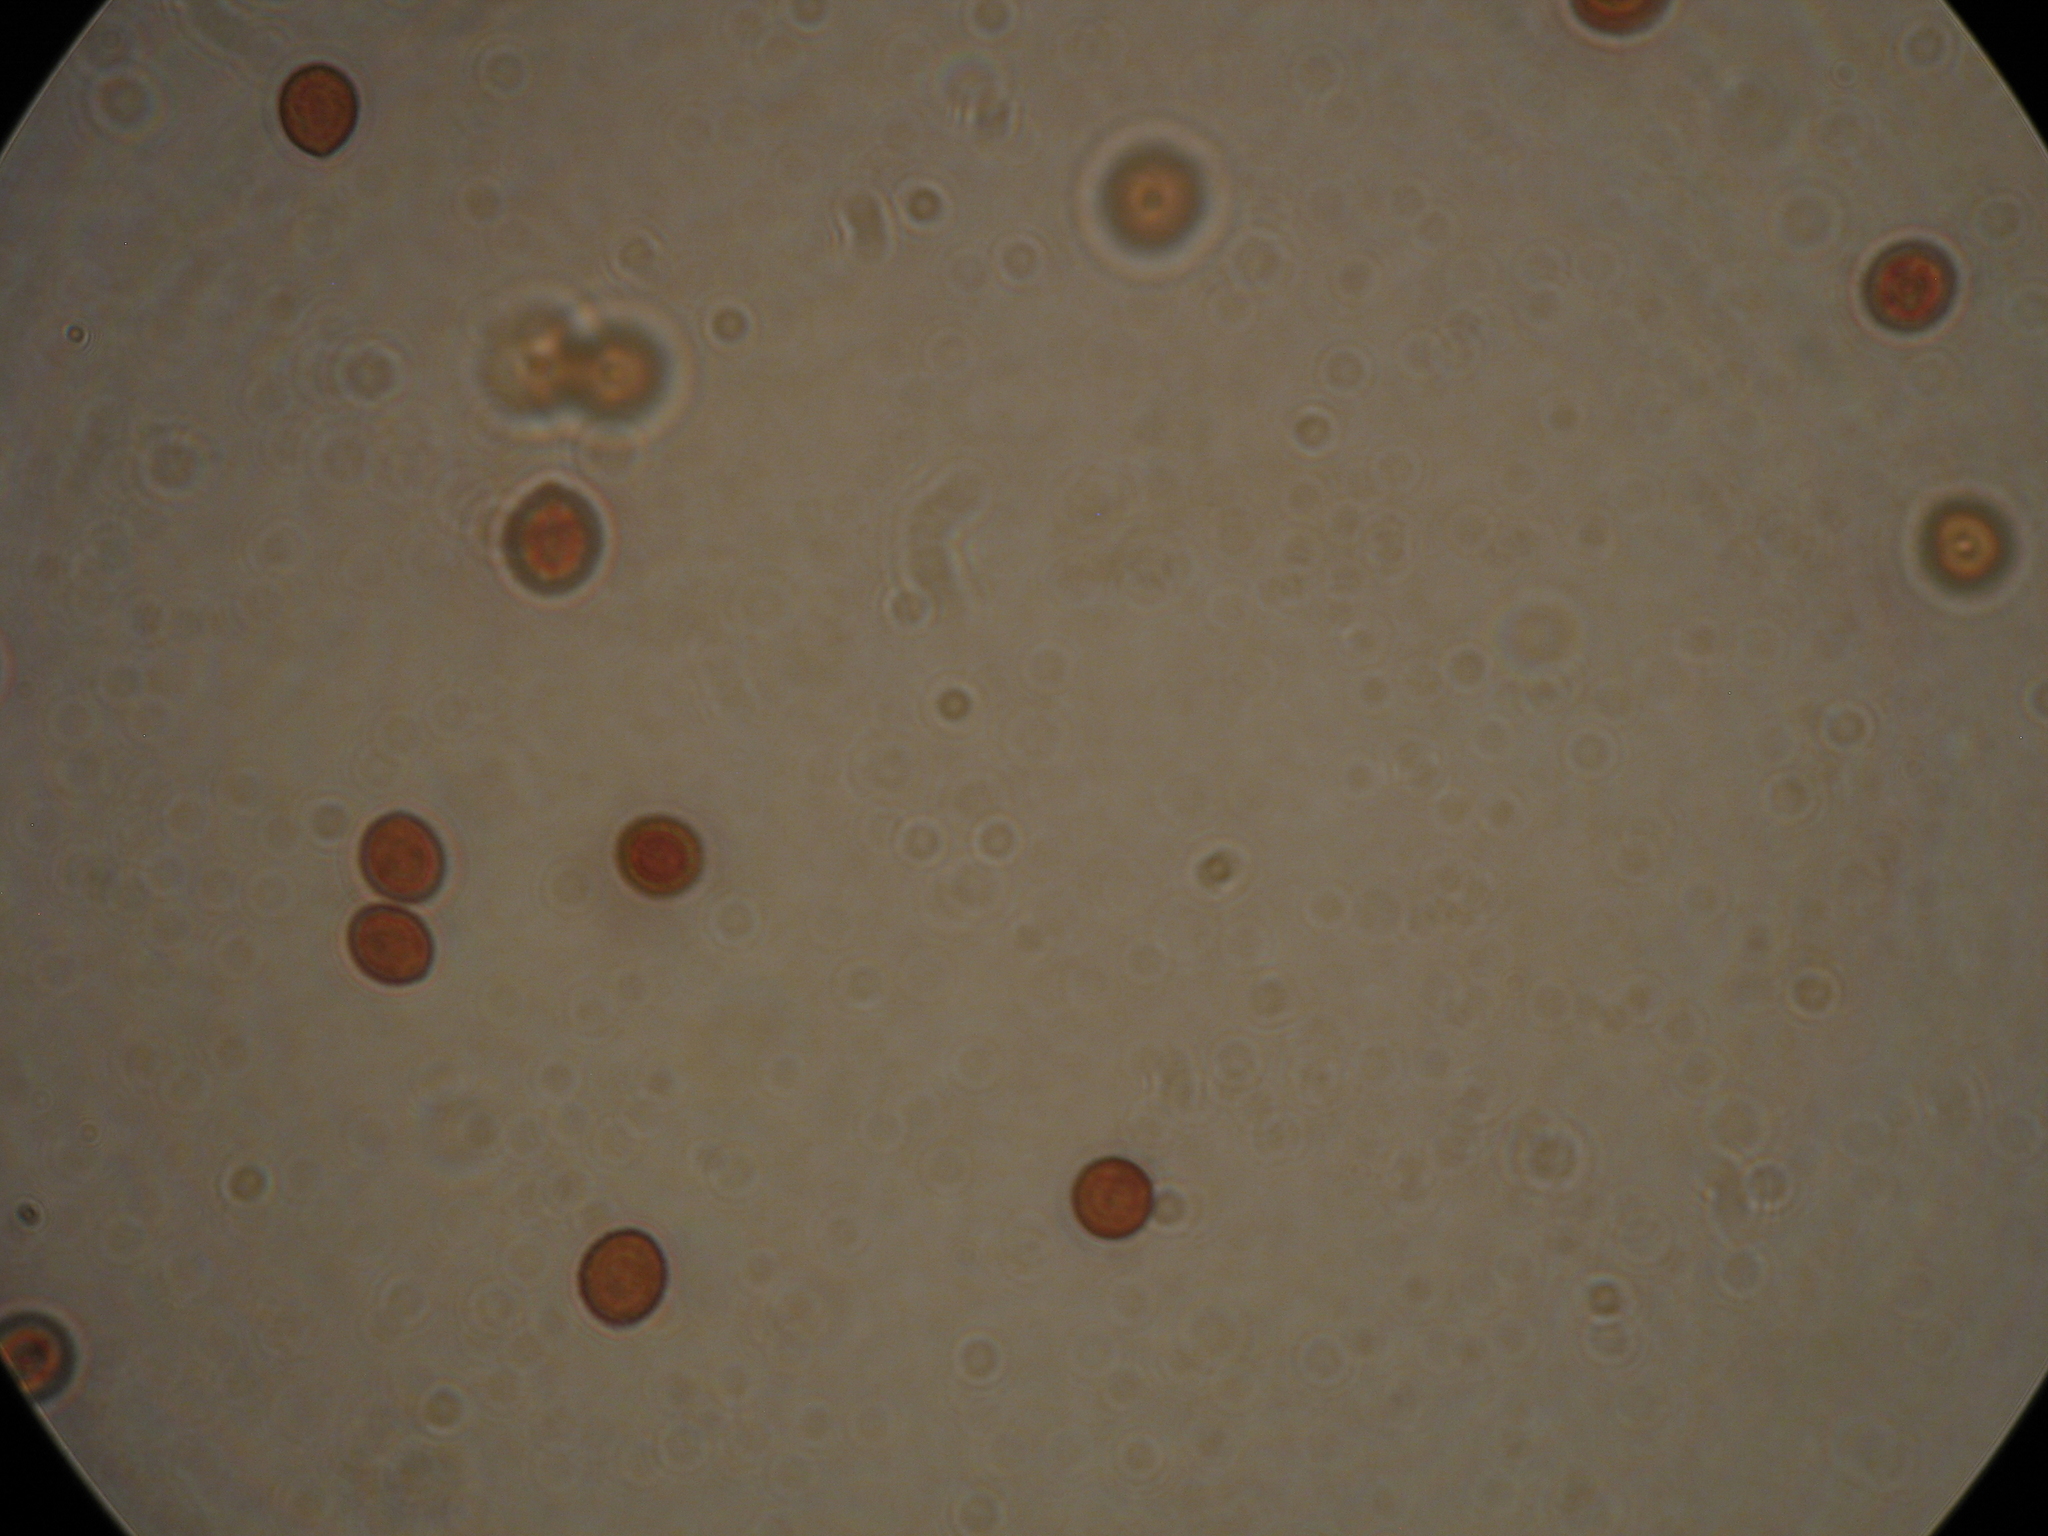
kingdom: Fungi
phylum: Basidiomycota
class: Agaricomycetes
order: Agaricales
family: Cortinariaceae
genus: Cortinarius
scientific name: Cortinarius rotundisporus
